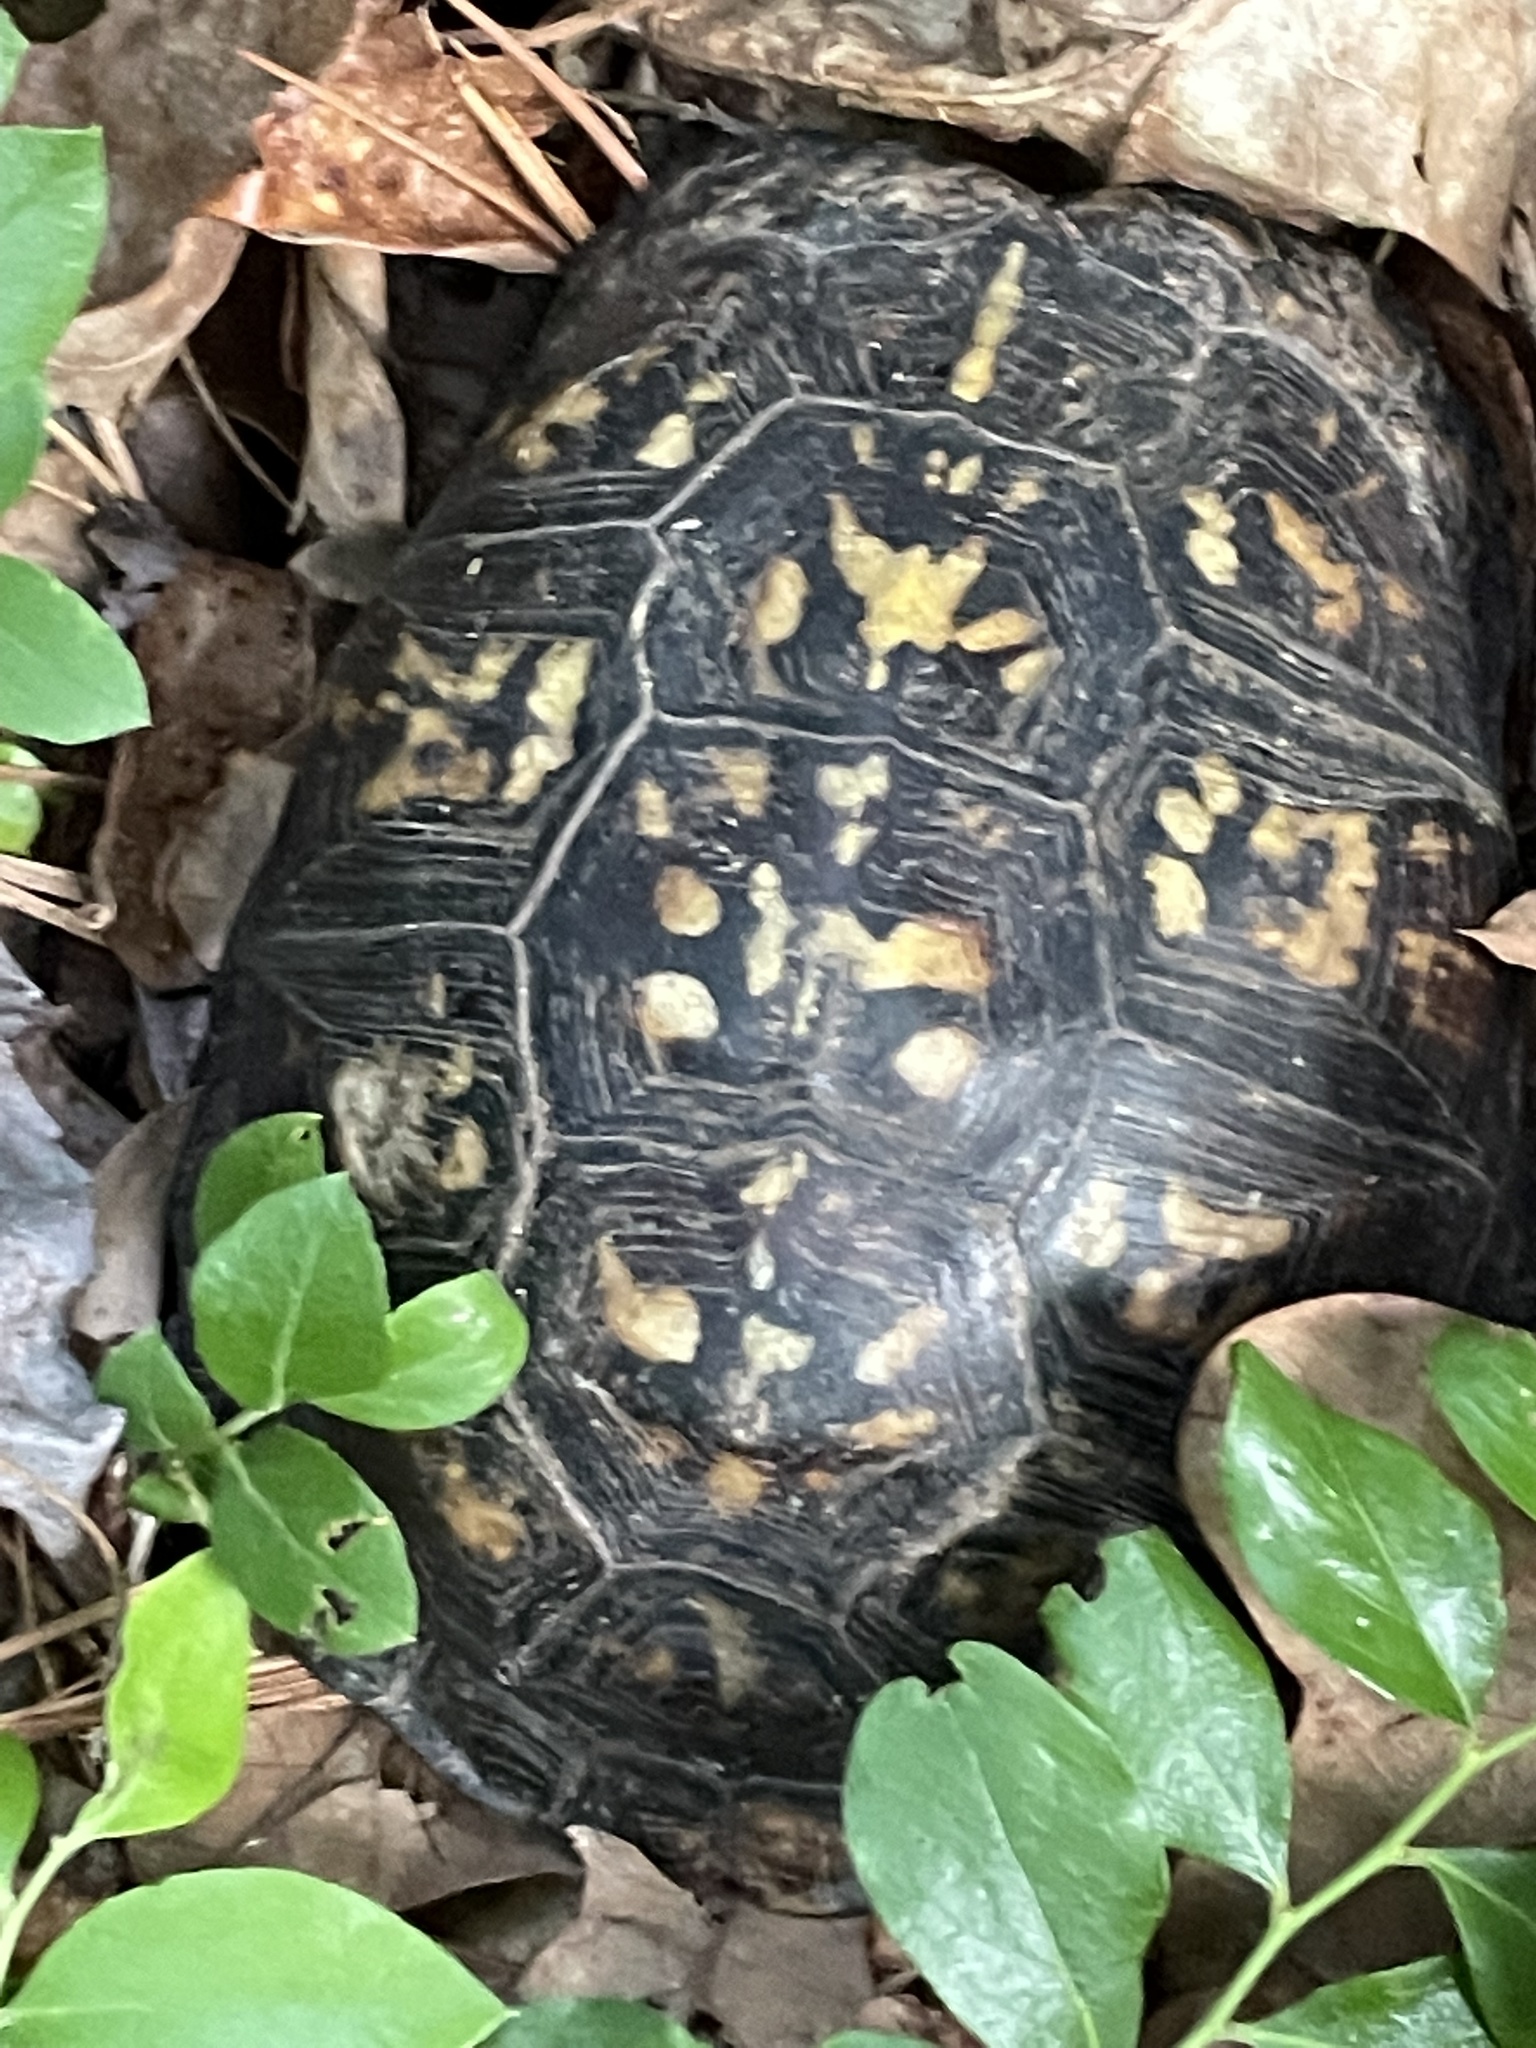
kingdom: Animalia
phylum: Chordata
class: Testudines
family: Emydidae
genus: Terrapene
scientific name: Terrapene carolina
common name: Common box turtle
